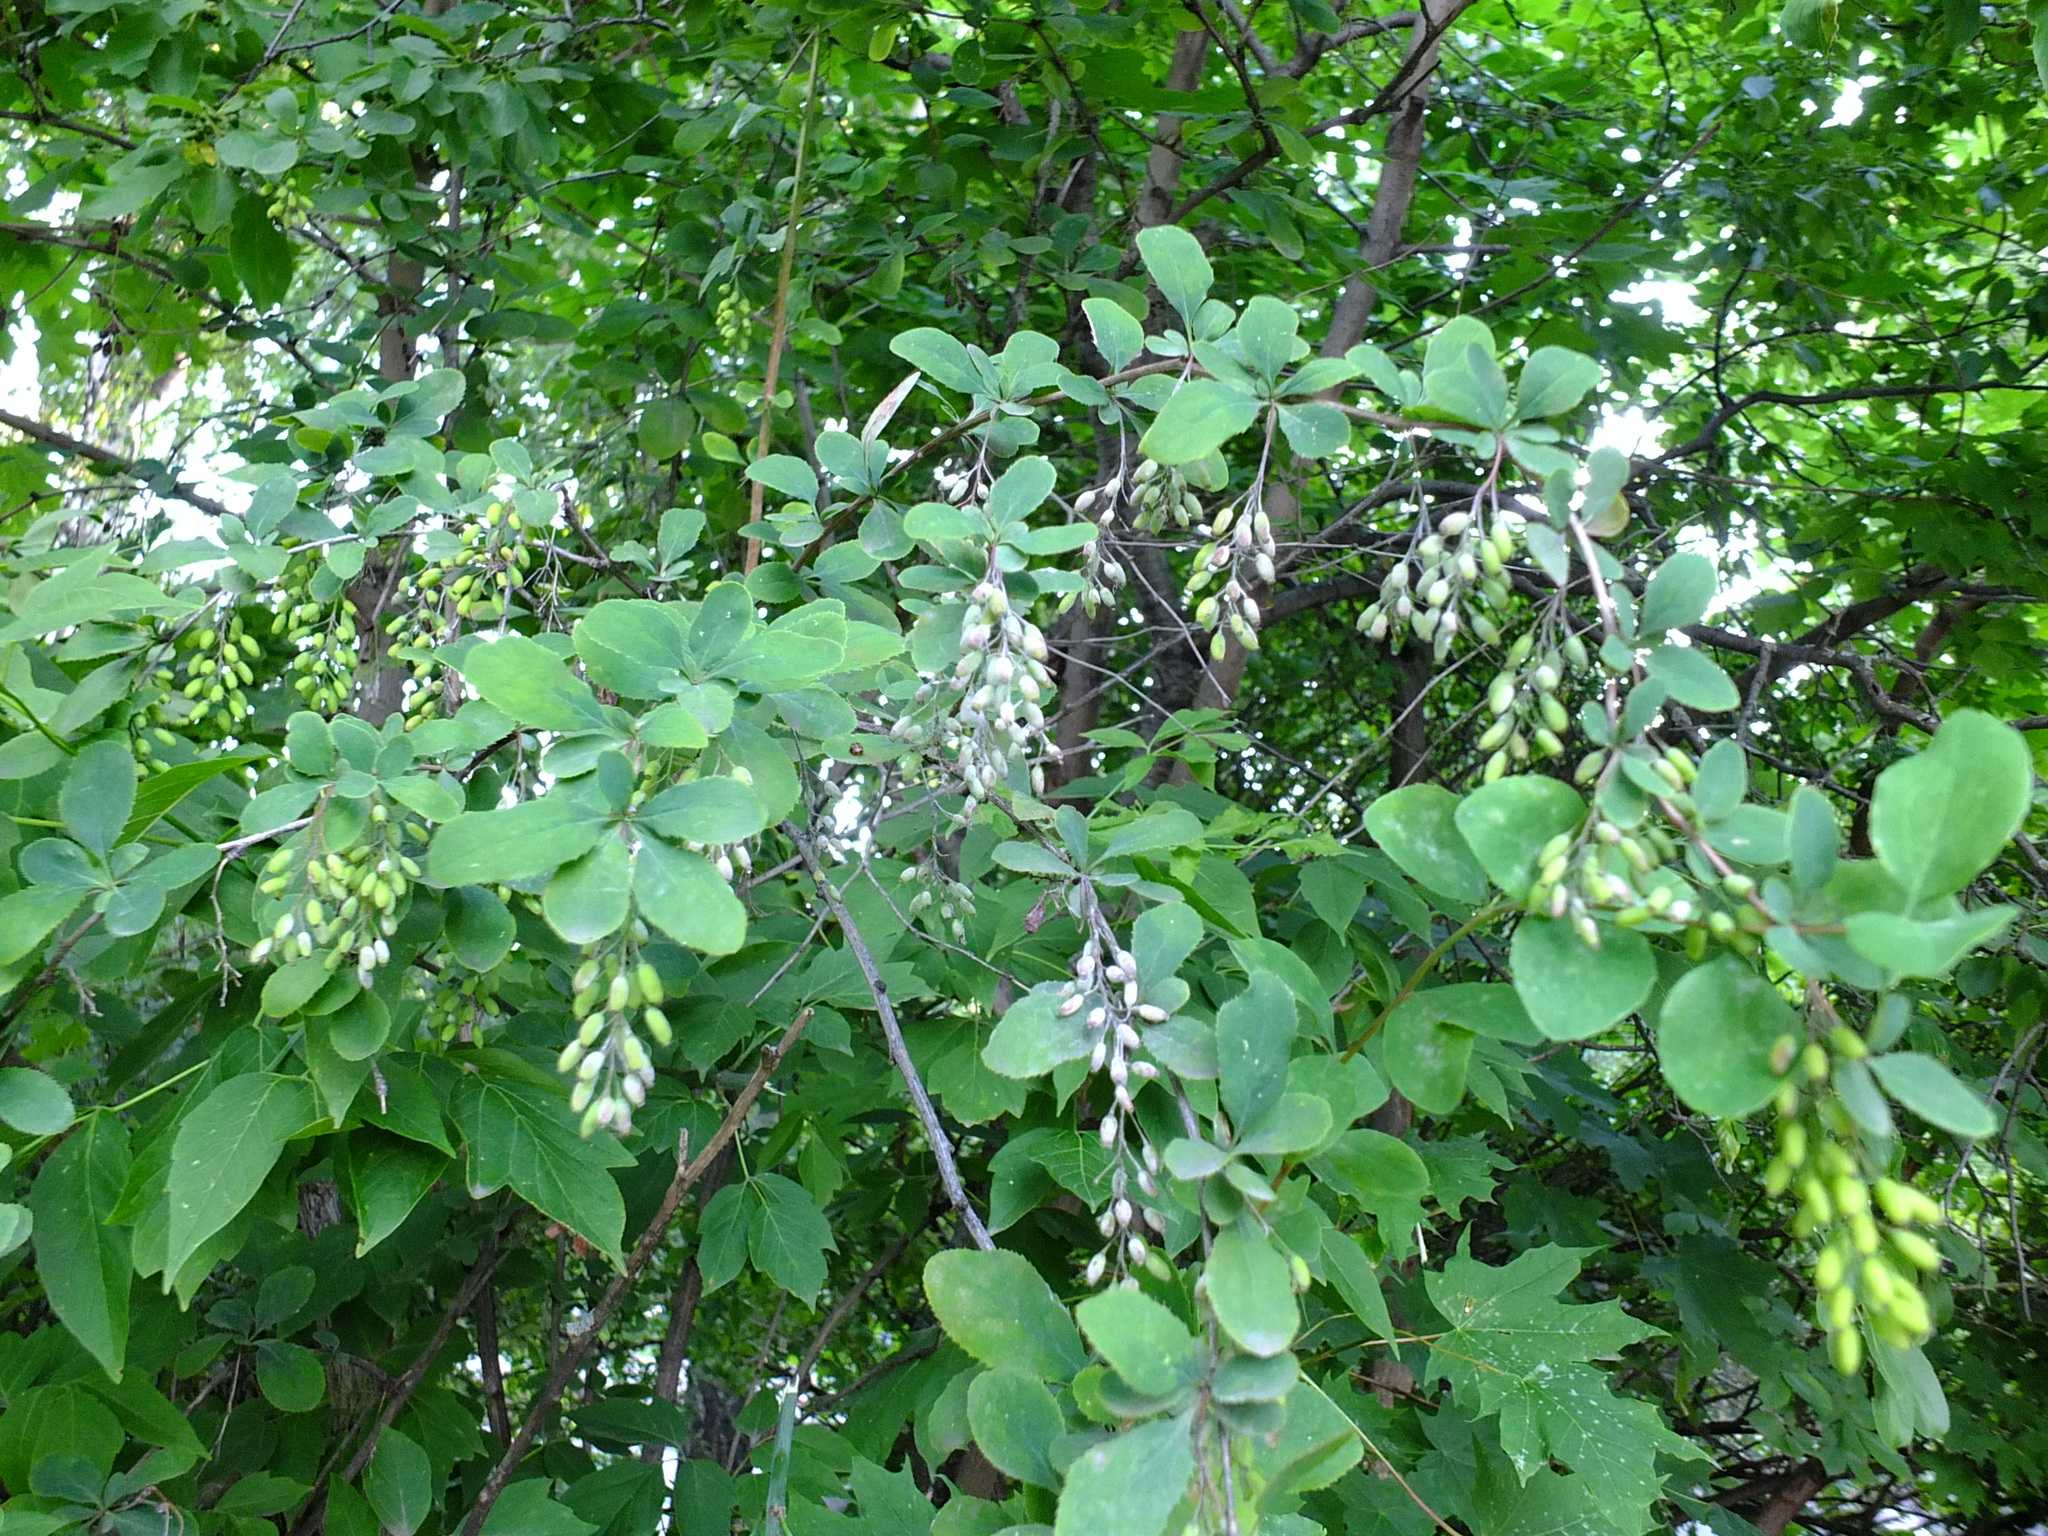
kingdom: Plantae
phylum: Tracheophyta
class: Magnoliopsida
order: Ranunculales
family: Berberidaceae
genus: Berberis
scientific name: Berberis vulgaris
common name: Barberry
